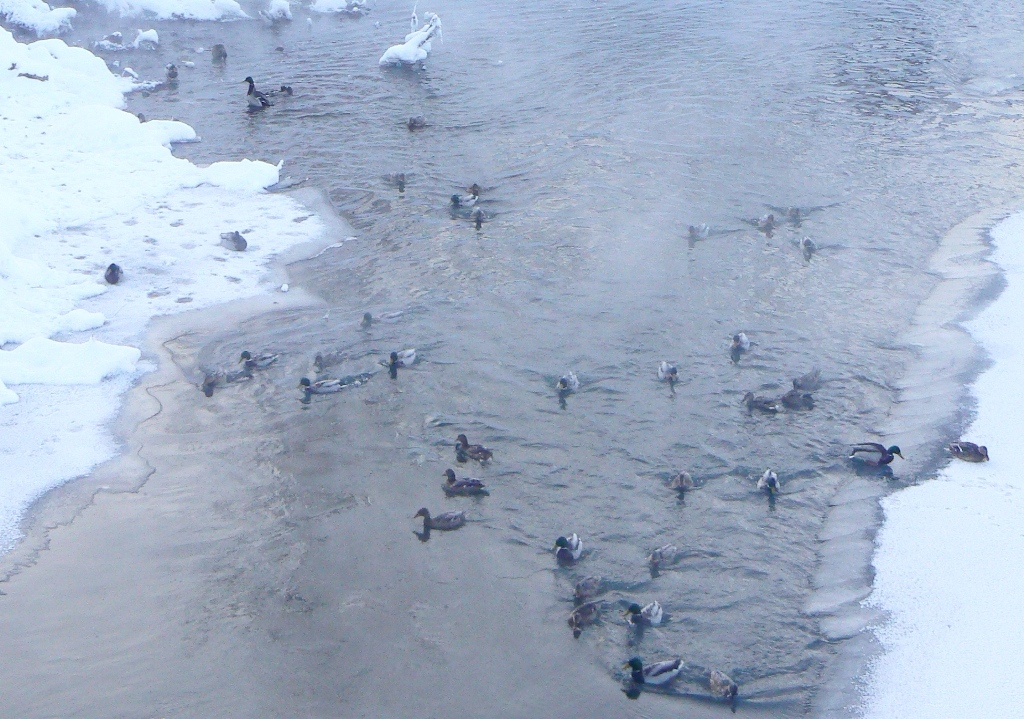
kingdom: Animalia
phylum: Chordata
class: Aves
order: Anseriformes
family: Anatidae
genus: Anas
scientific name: Anas platyrhynchos
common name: Mallard
